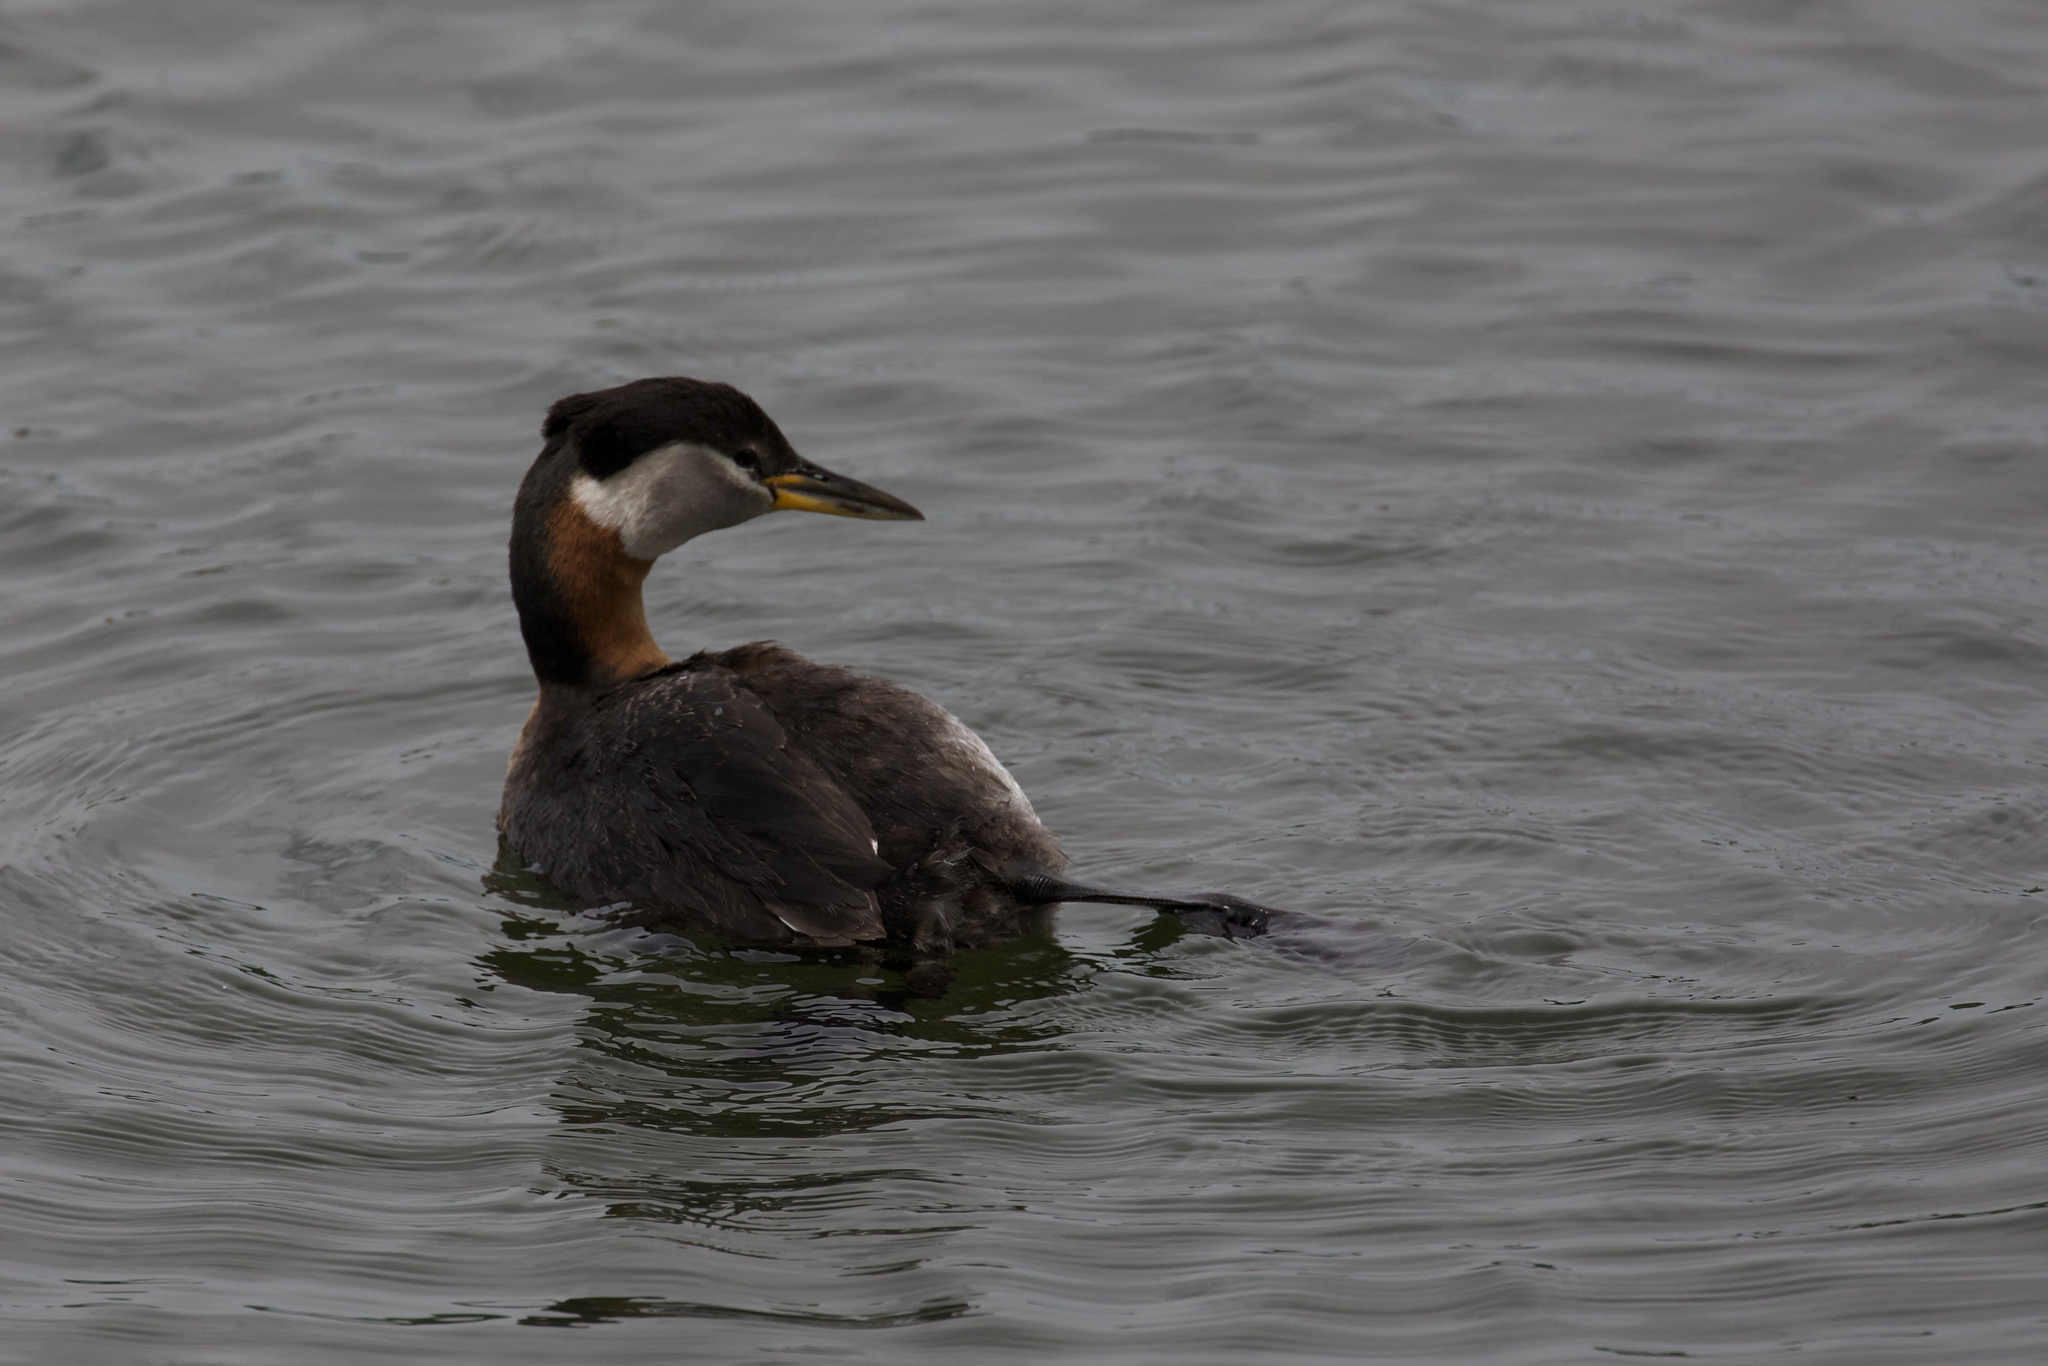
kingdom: Animalia
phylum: Chordata
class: Aves
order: Podicipediformes
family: Podicipedidae
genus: Podiceps
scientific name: Podiceps grisegena
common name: Red-necked grebe
